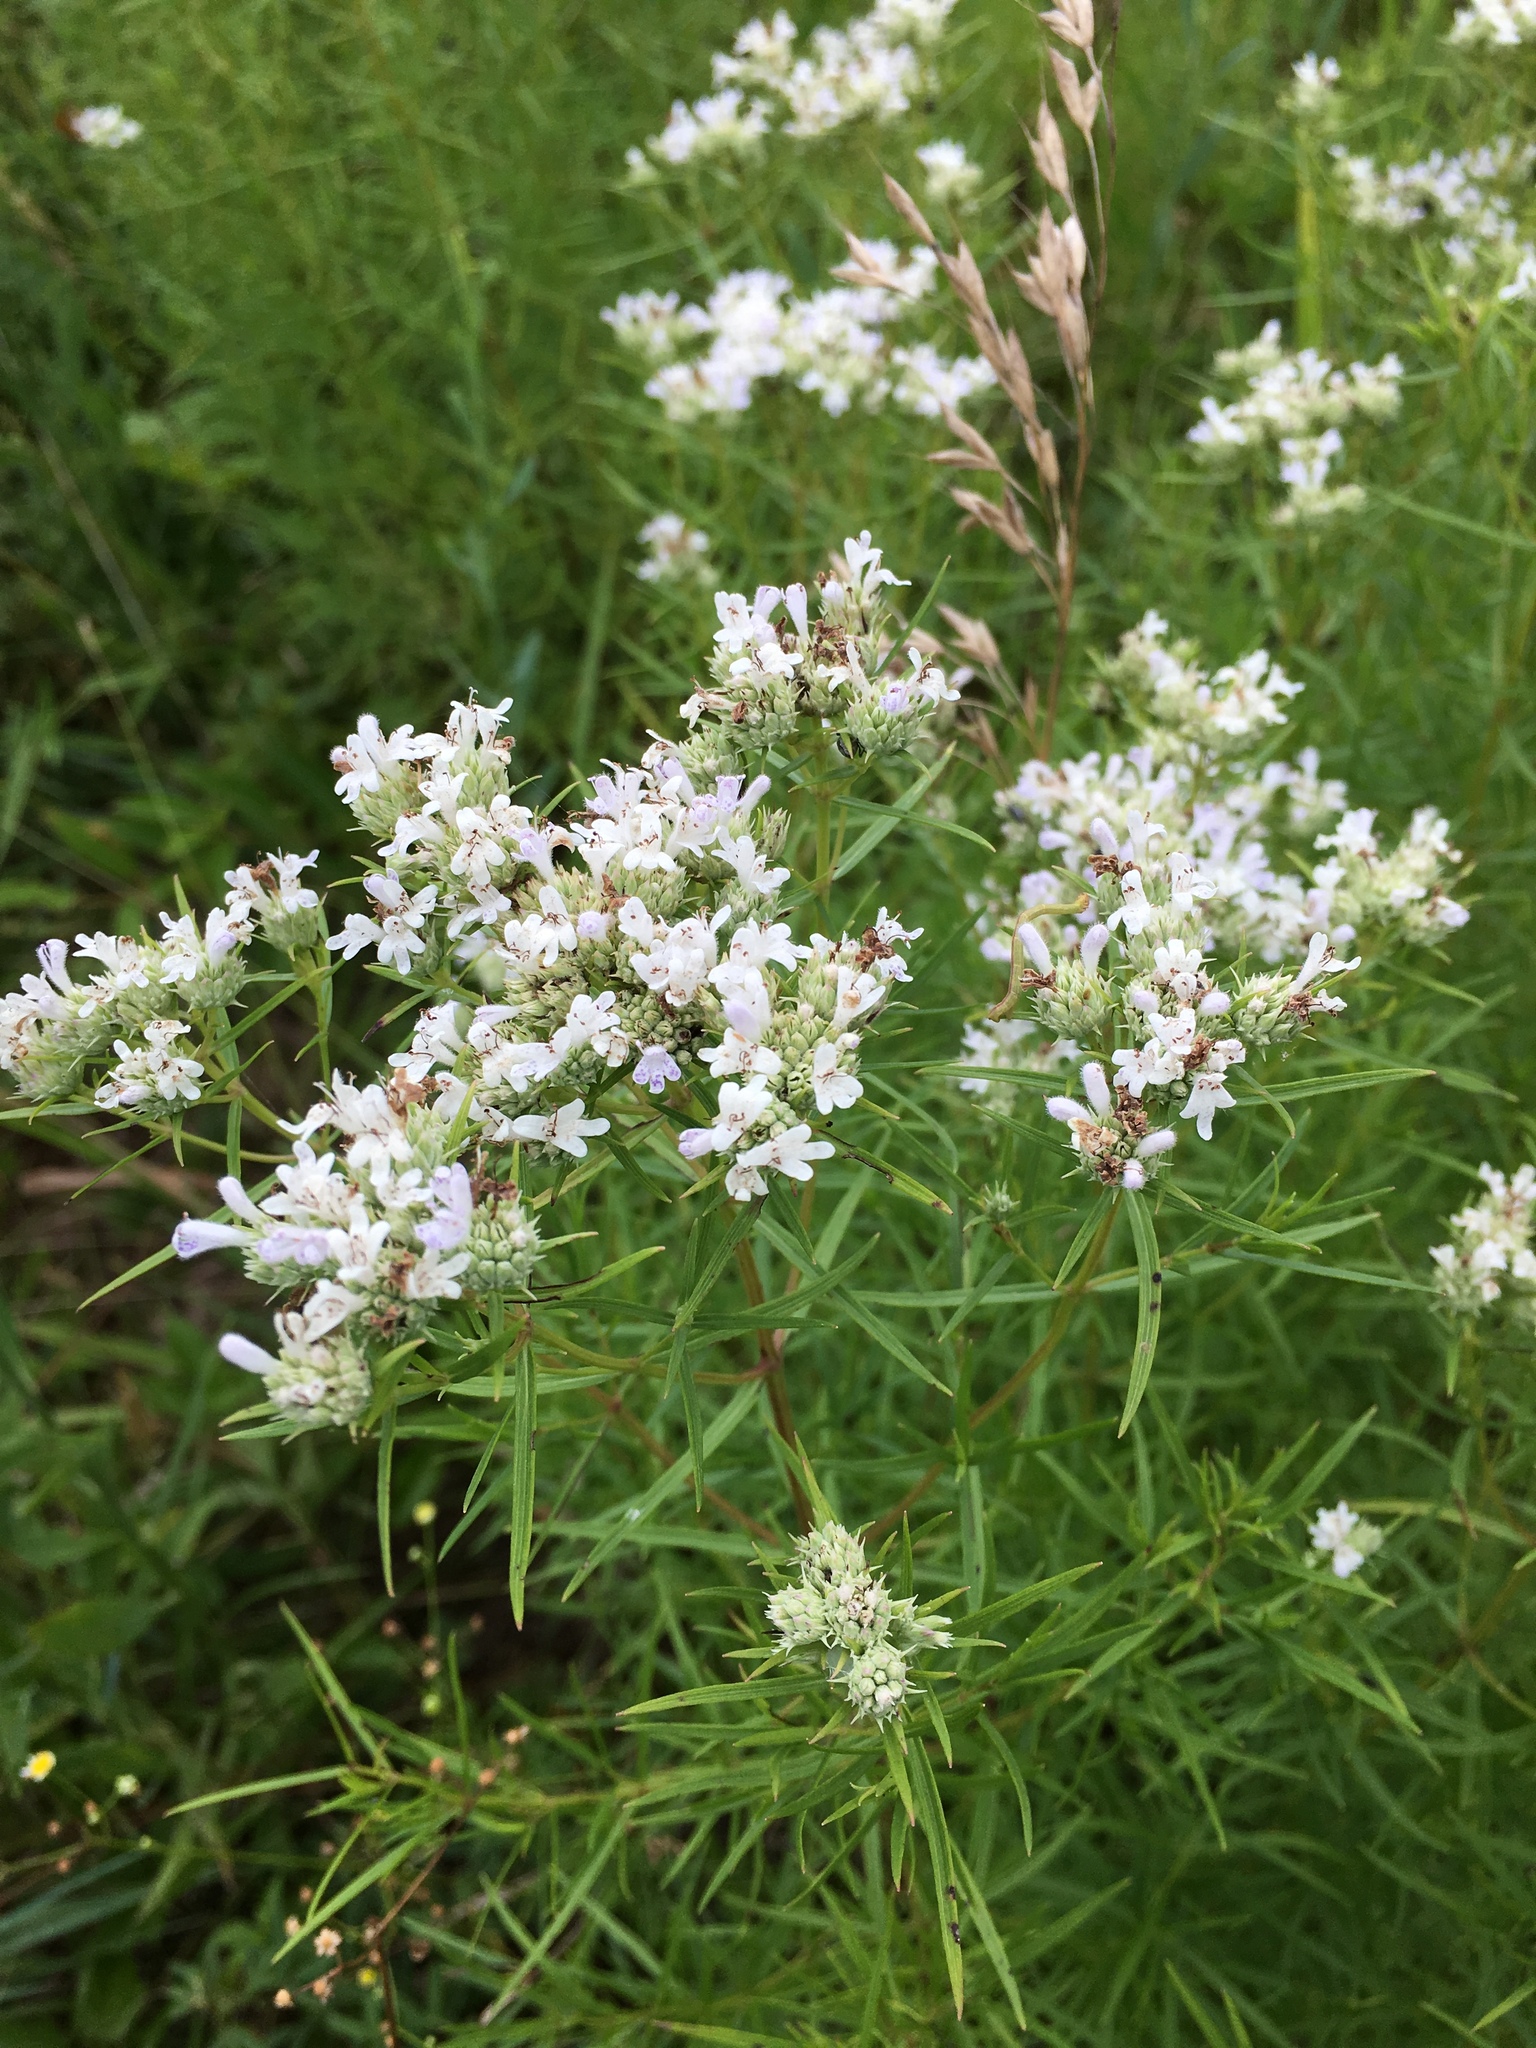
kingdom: Plantae
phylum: Tracheophyta
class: Magnoliopsida
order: Lamiales
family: Lamiaceae
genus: Pycnanthemum
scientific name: Pycnanthemum tenuifolium
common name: Narrow-leaf mountain-mint
